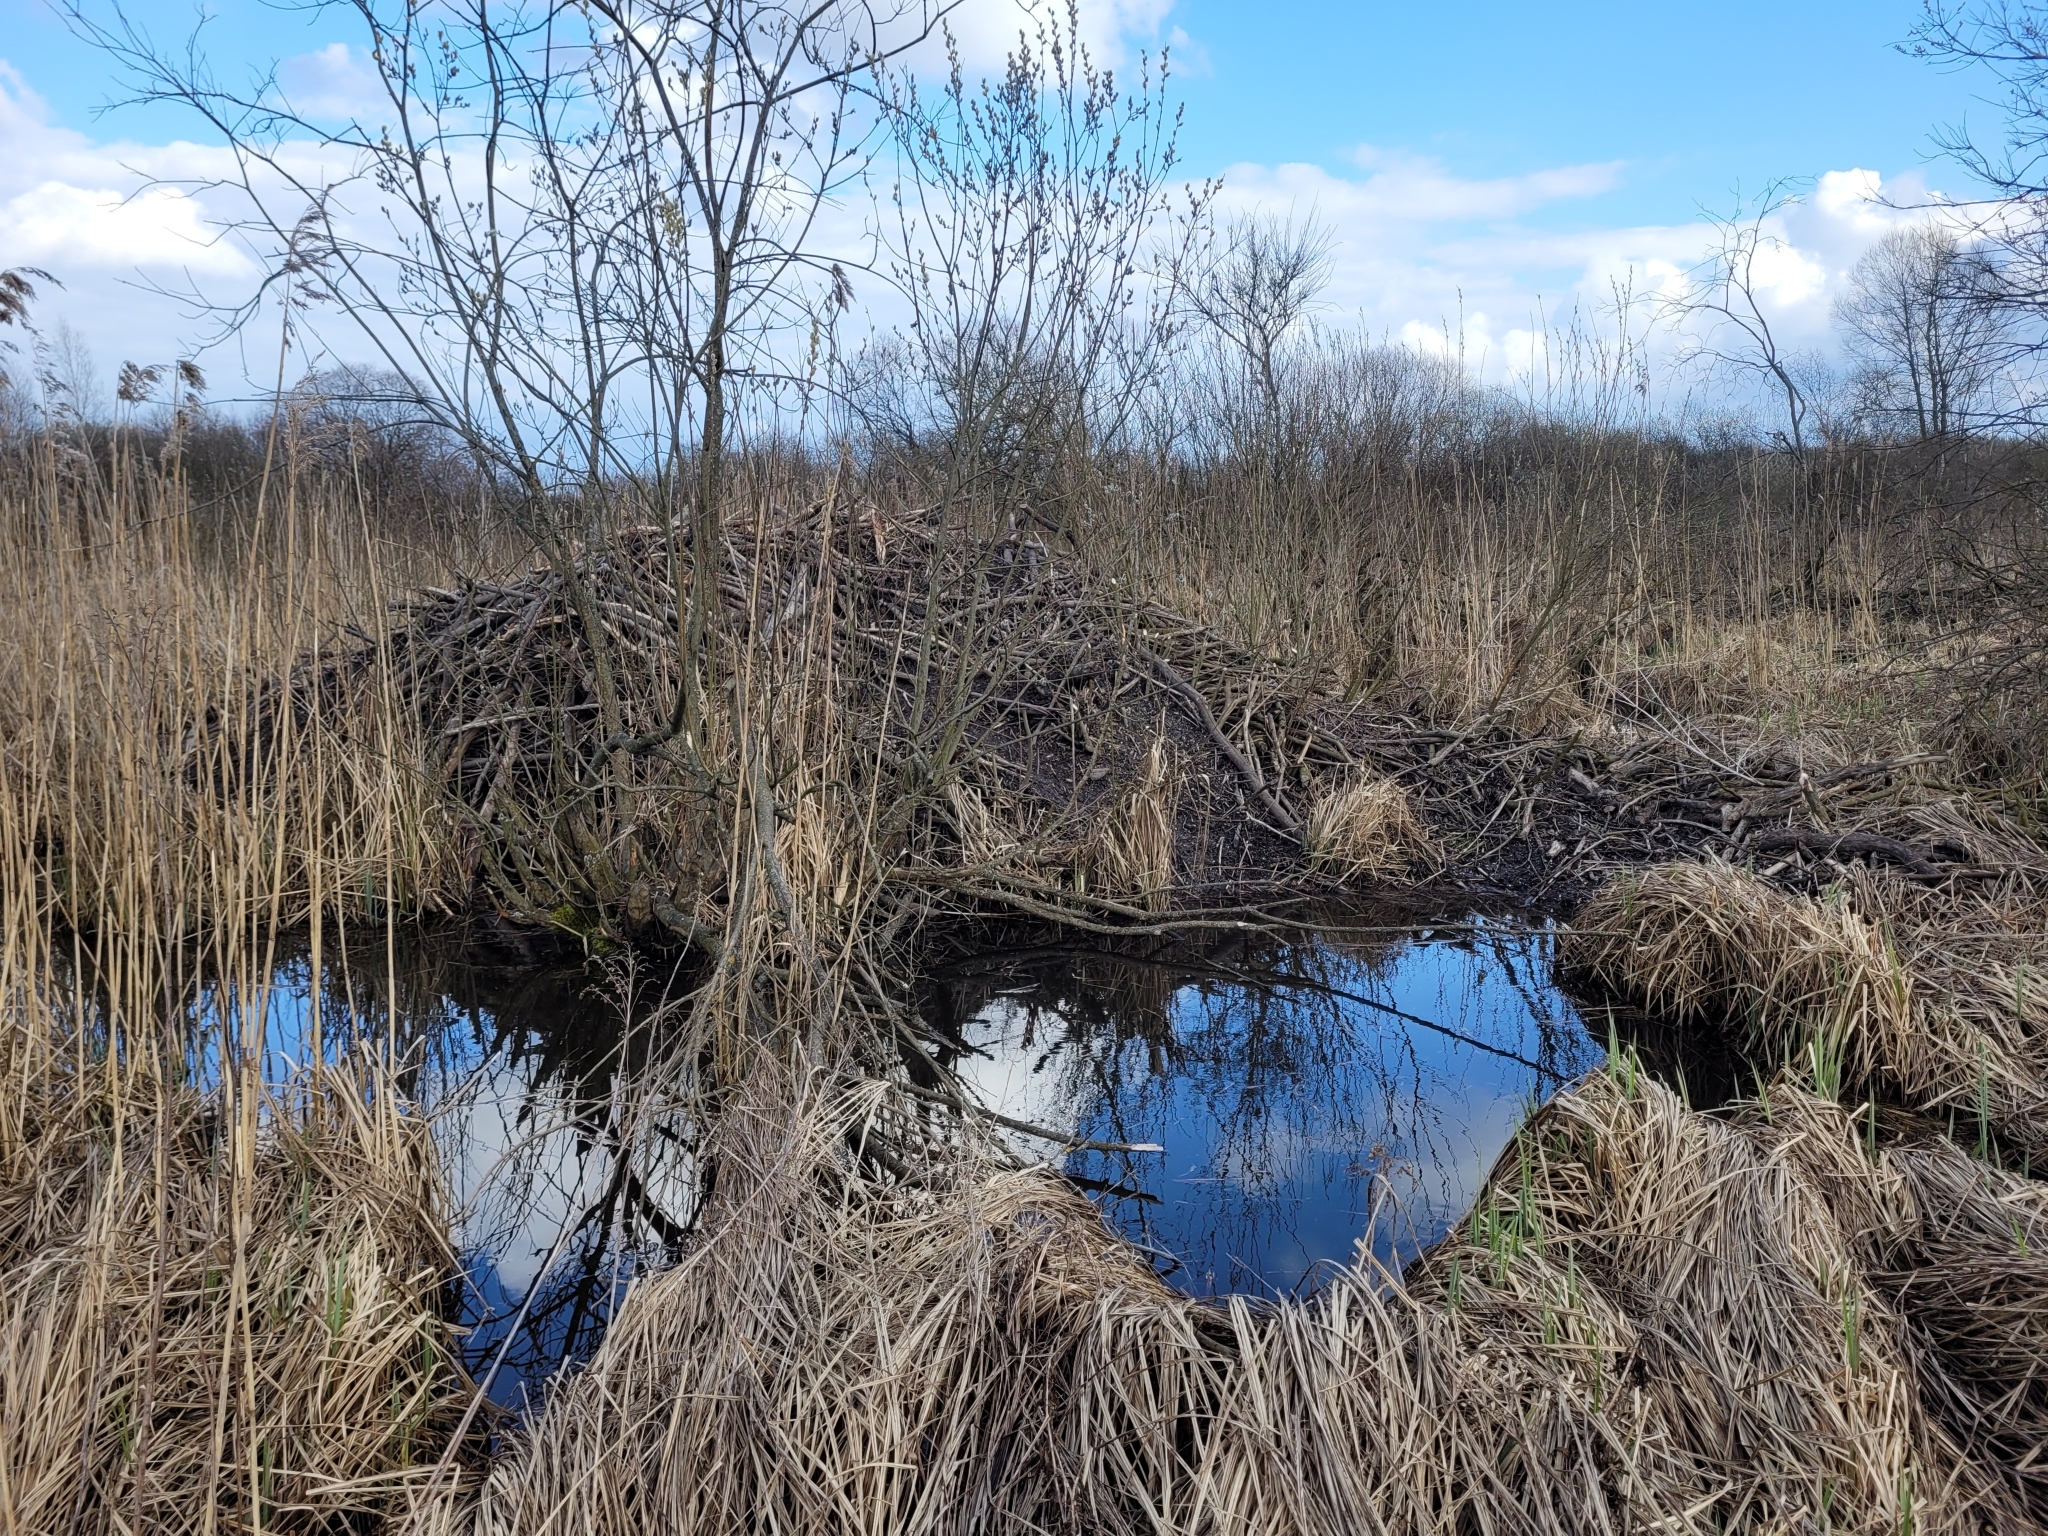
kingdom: Animalia
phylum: Chordata
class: Mammalia
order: Rodentia
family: Castoridae
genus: Castor
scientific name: Castor fiber
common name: Eurasian beaver
